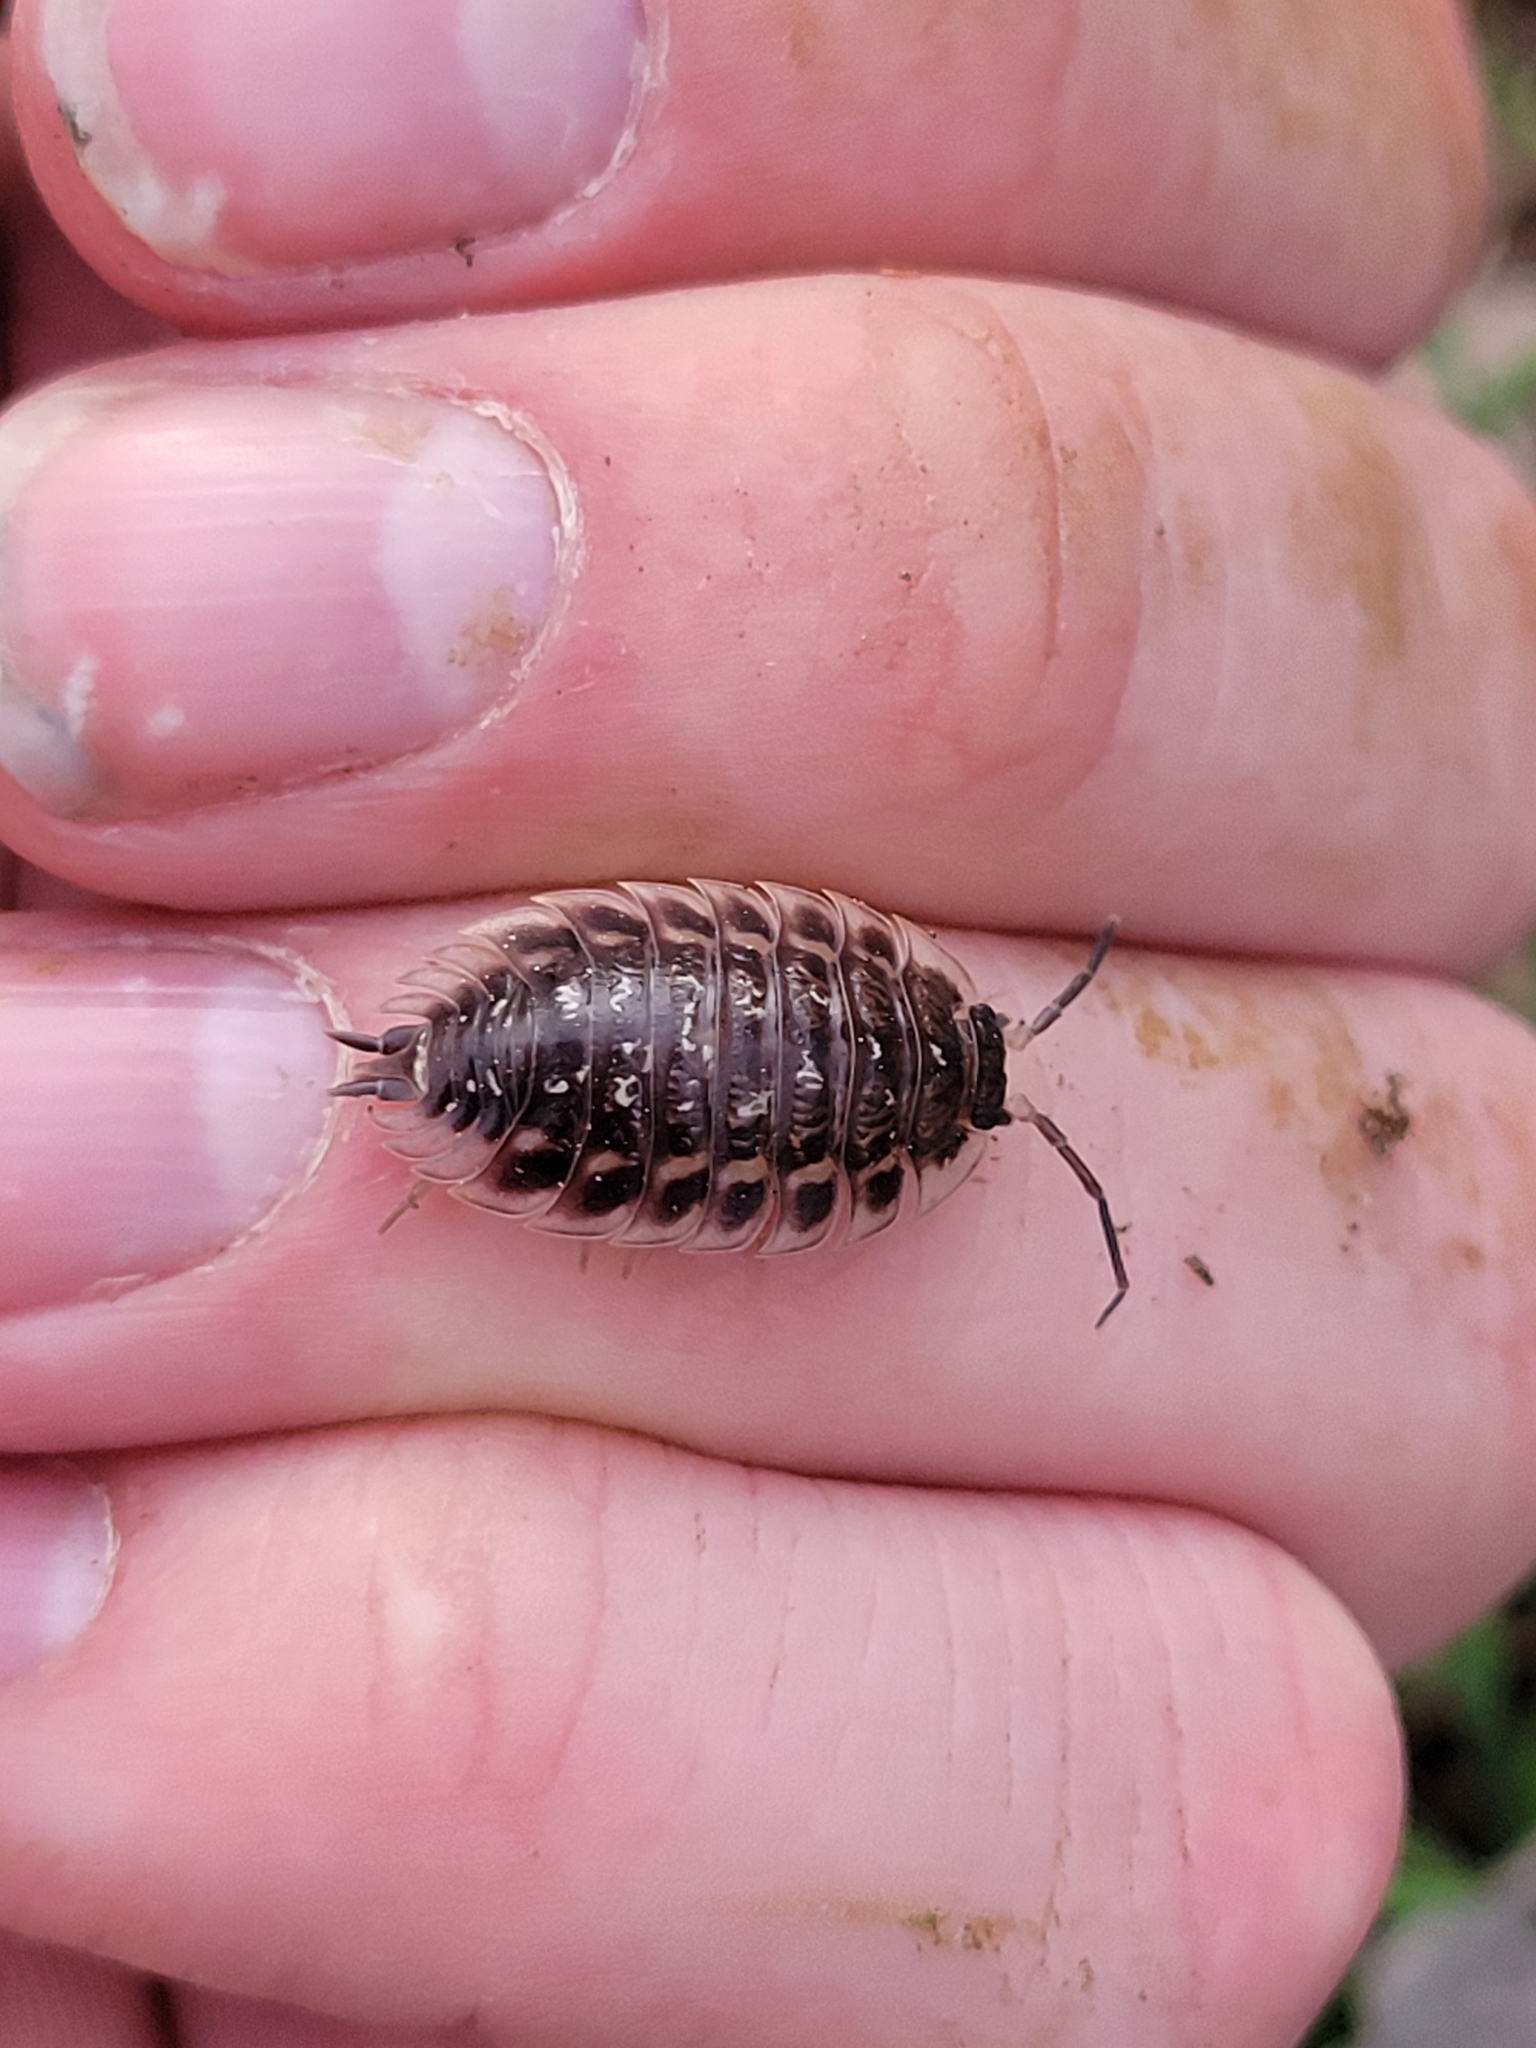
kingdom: Animalia
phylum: Arthropoda
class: Malacostraca
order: Isopoda
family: Oniscidae
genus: Oniscus
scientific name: Oniscus asellus
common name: Common shiny woodlouse
